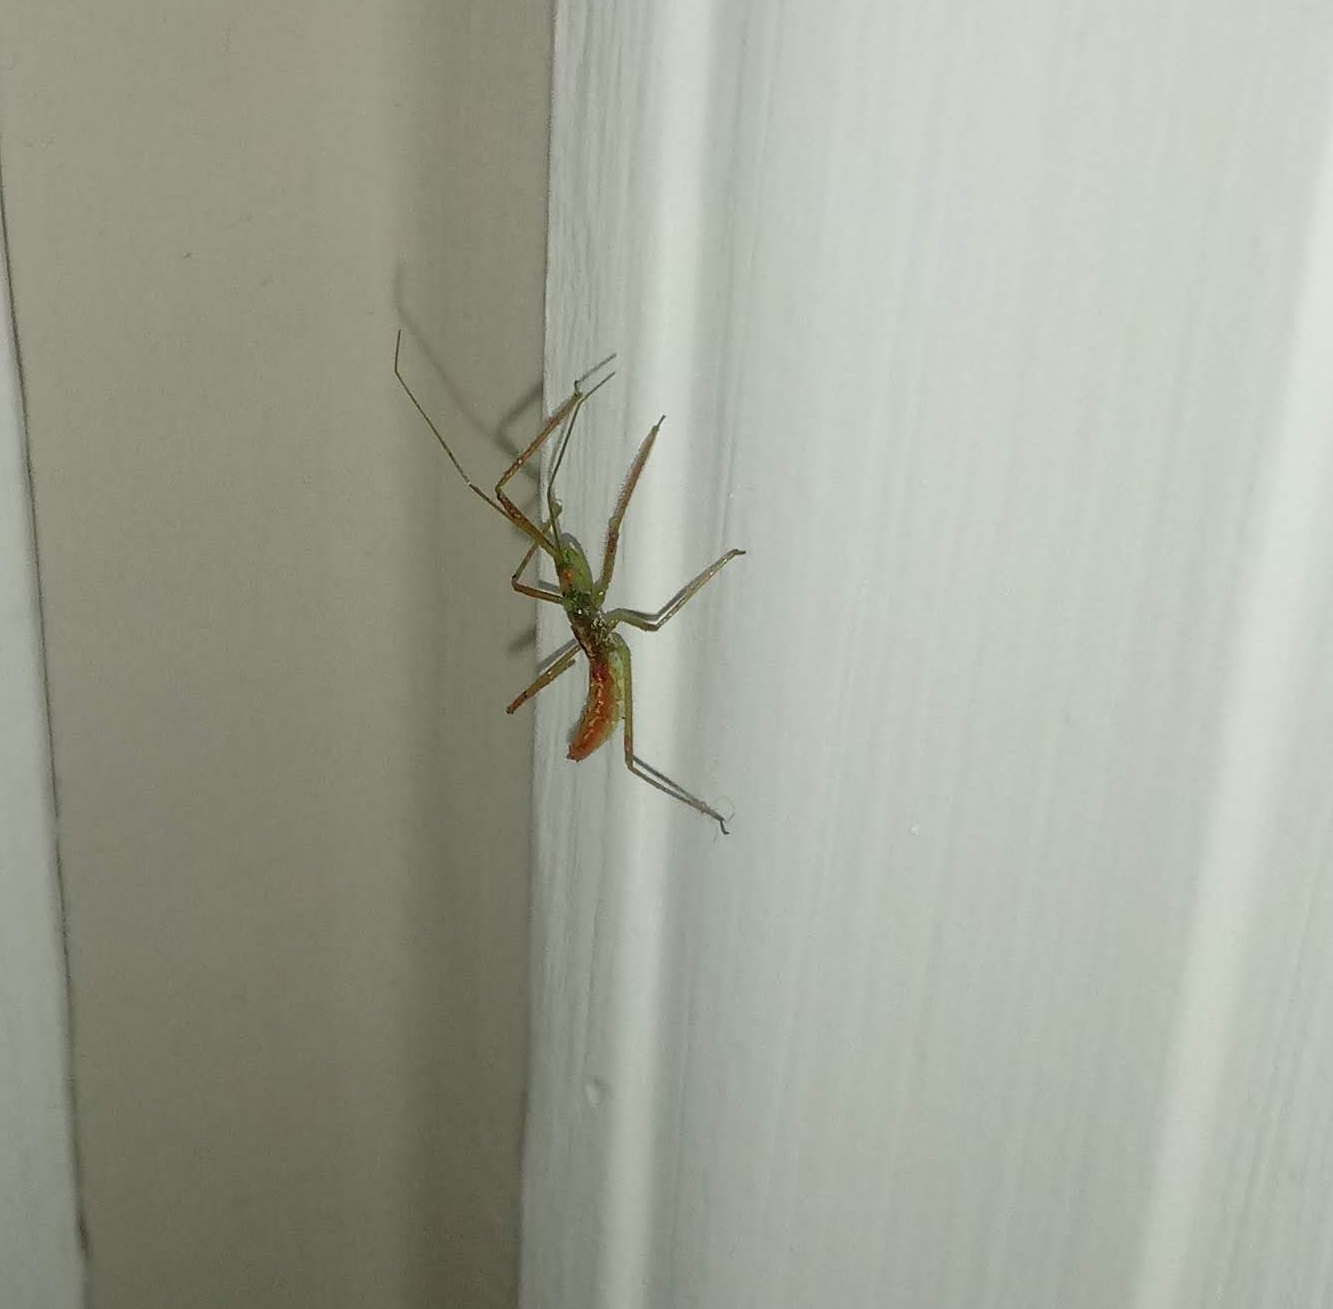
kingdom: Animalia
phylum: Arthropoda
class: Insecta
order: Hemiptera
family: Reduviidae
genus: Zelus
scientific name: Zelus luridus
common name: Pale green assassin bug
